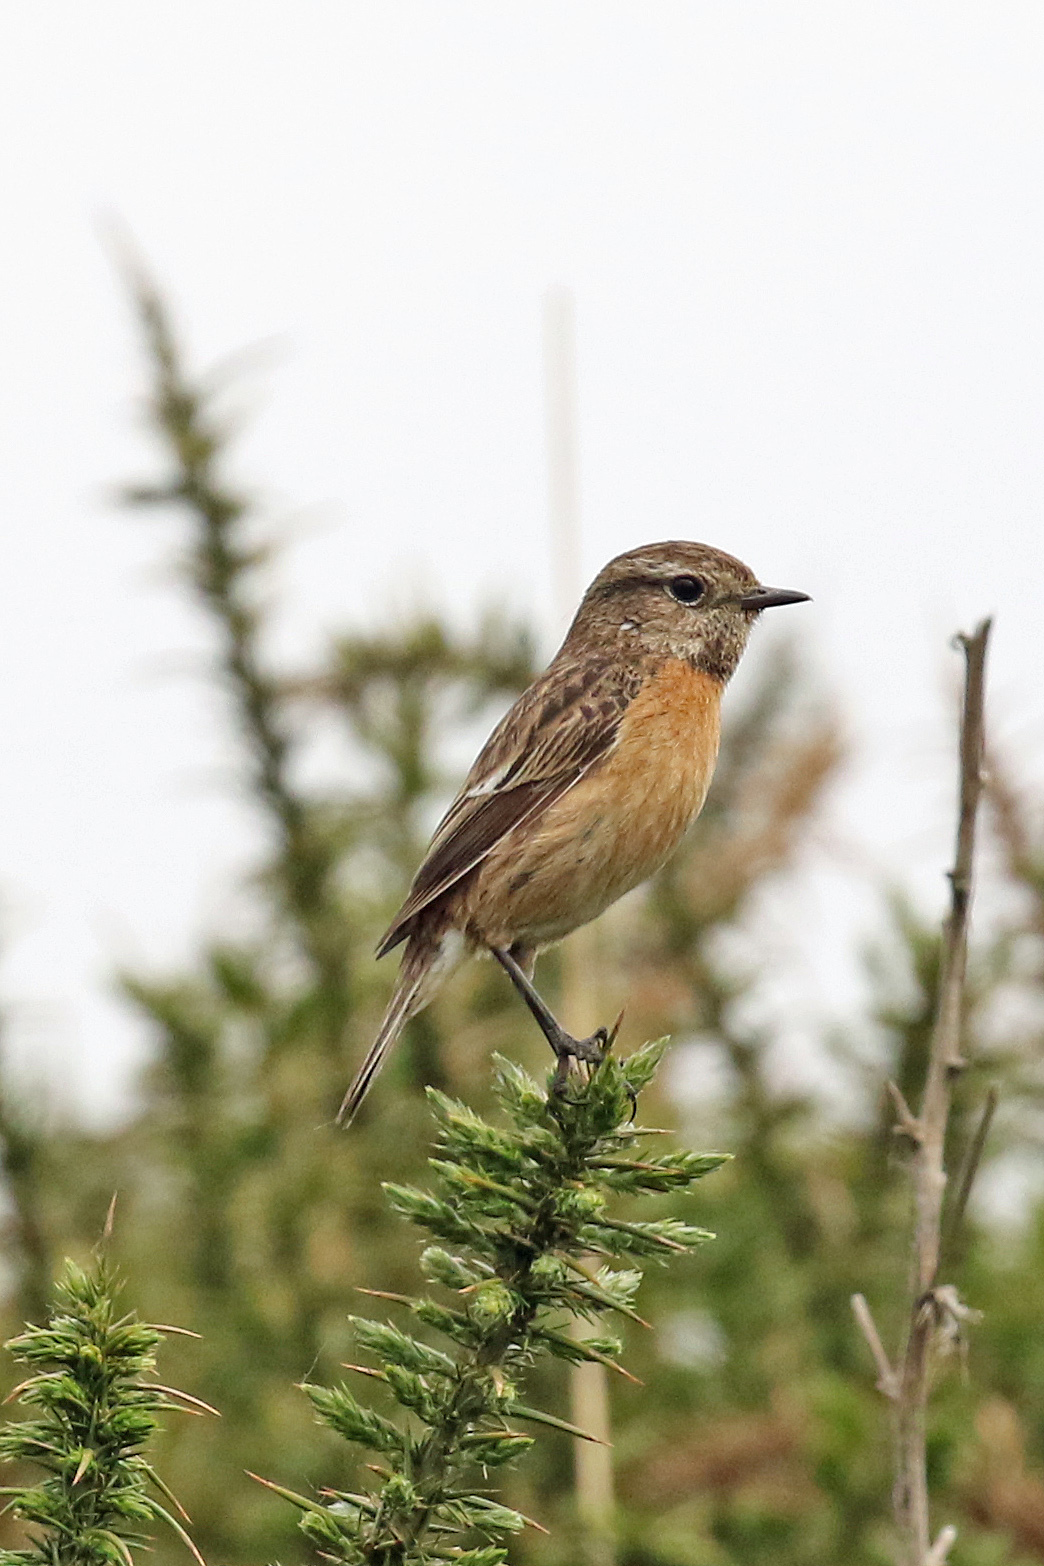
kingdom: Animalia
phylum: Chordata
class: Aves
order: Passeriformes
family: Muscicapidae
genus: Saxicola
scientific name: Saxicola rubicola
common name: European stonechat
